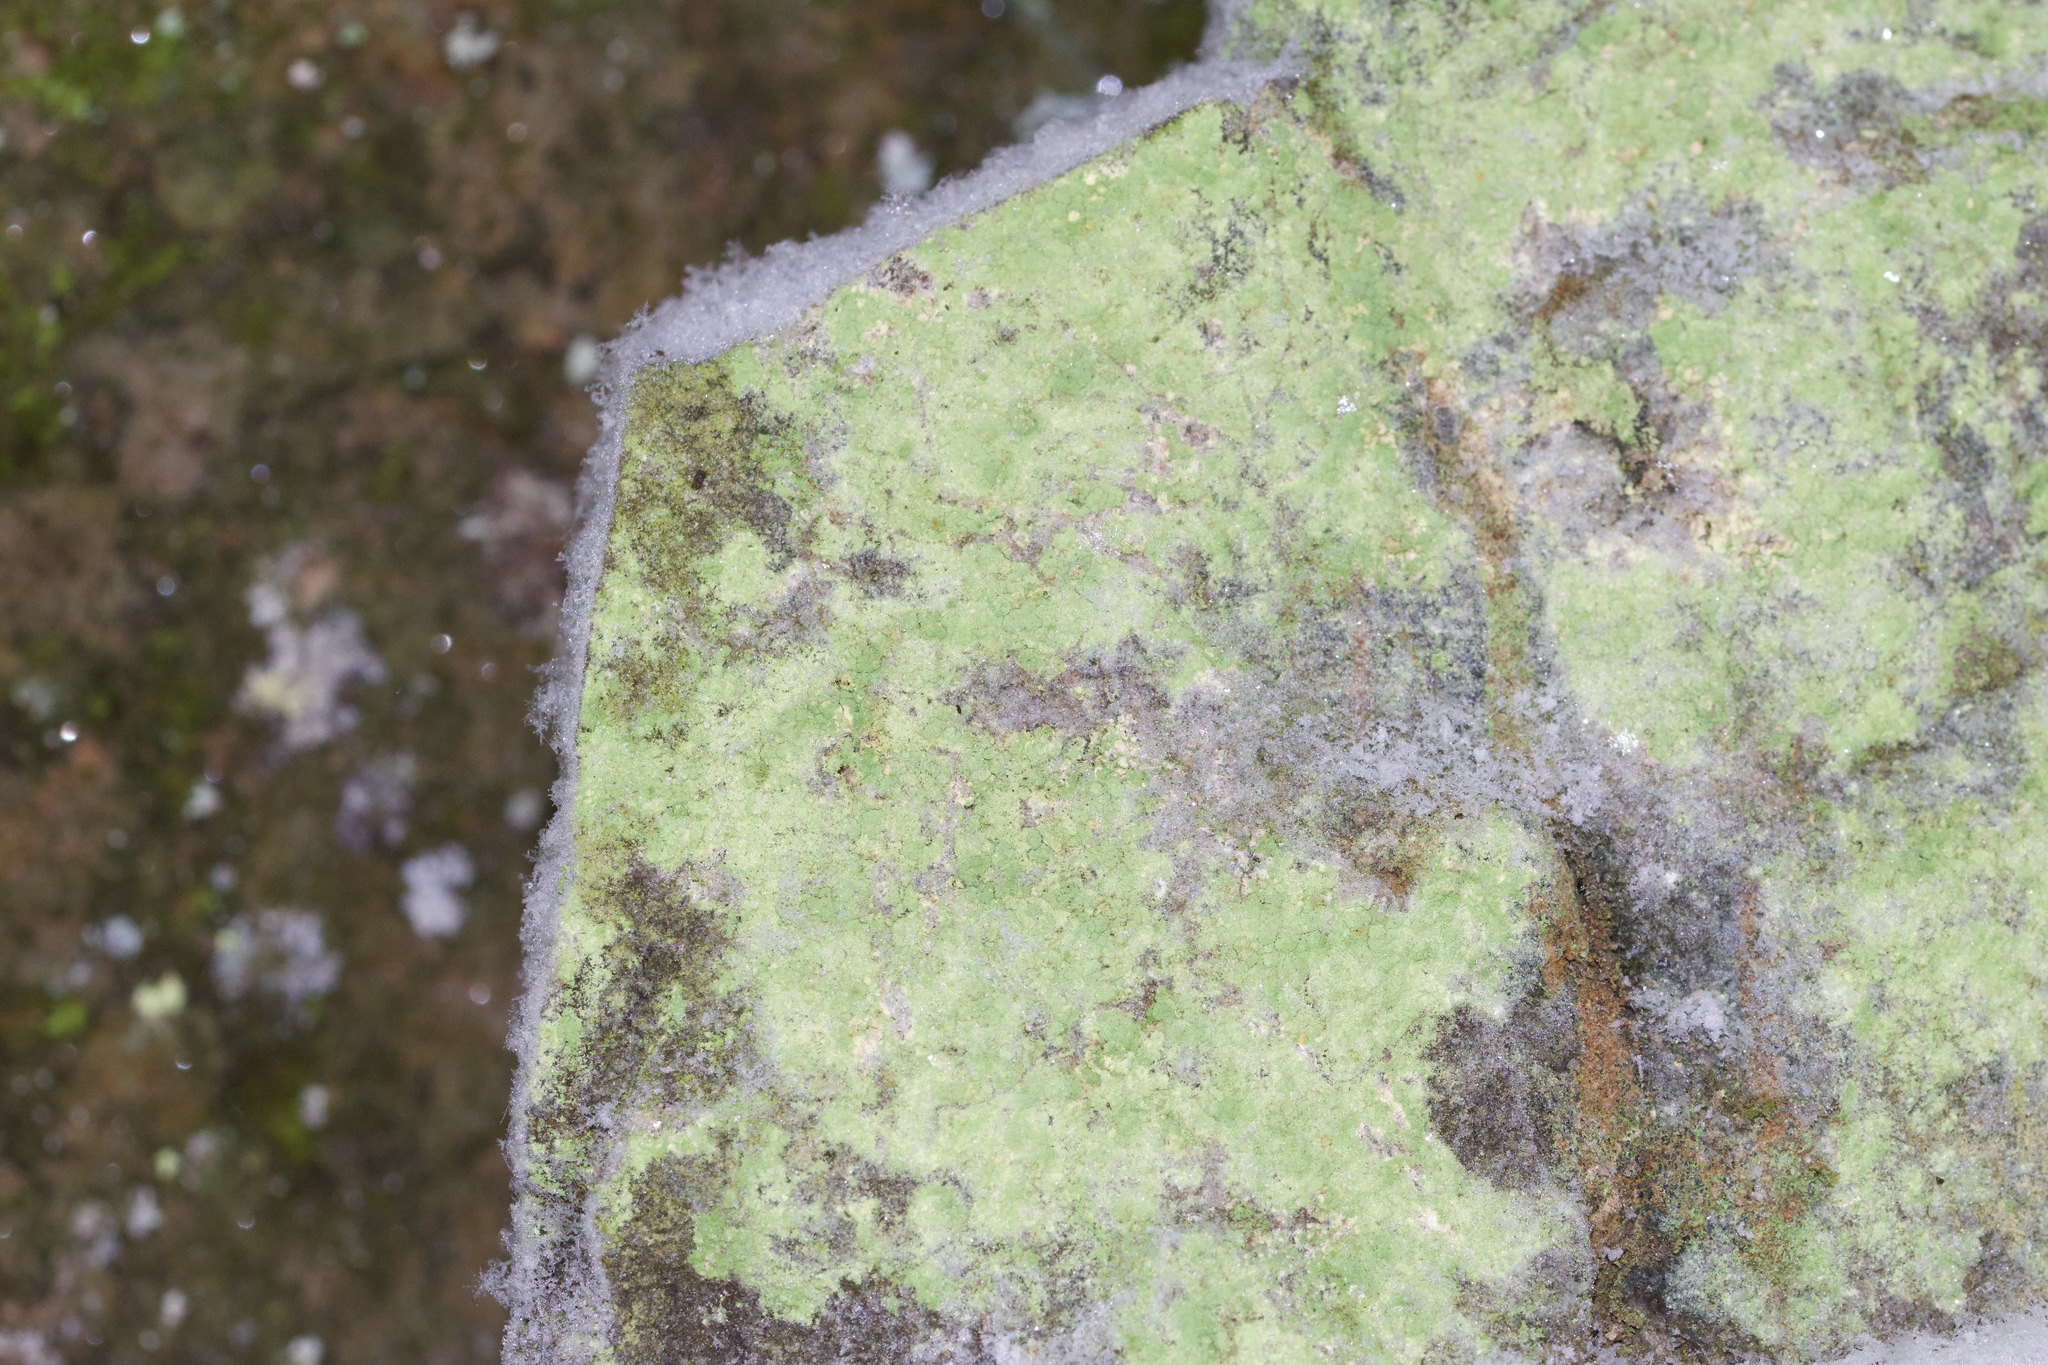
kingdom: Fungi
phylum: Ascomycota
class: Lecanoromycetes
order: Lecanorales
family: Psilolechiaceae
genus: Psilolechia
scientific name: Psilolechia lucida
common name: Sulphur dust lichen
